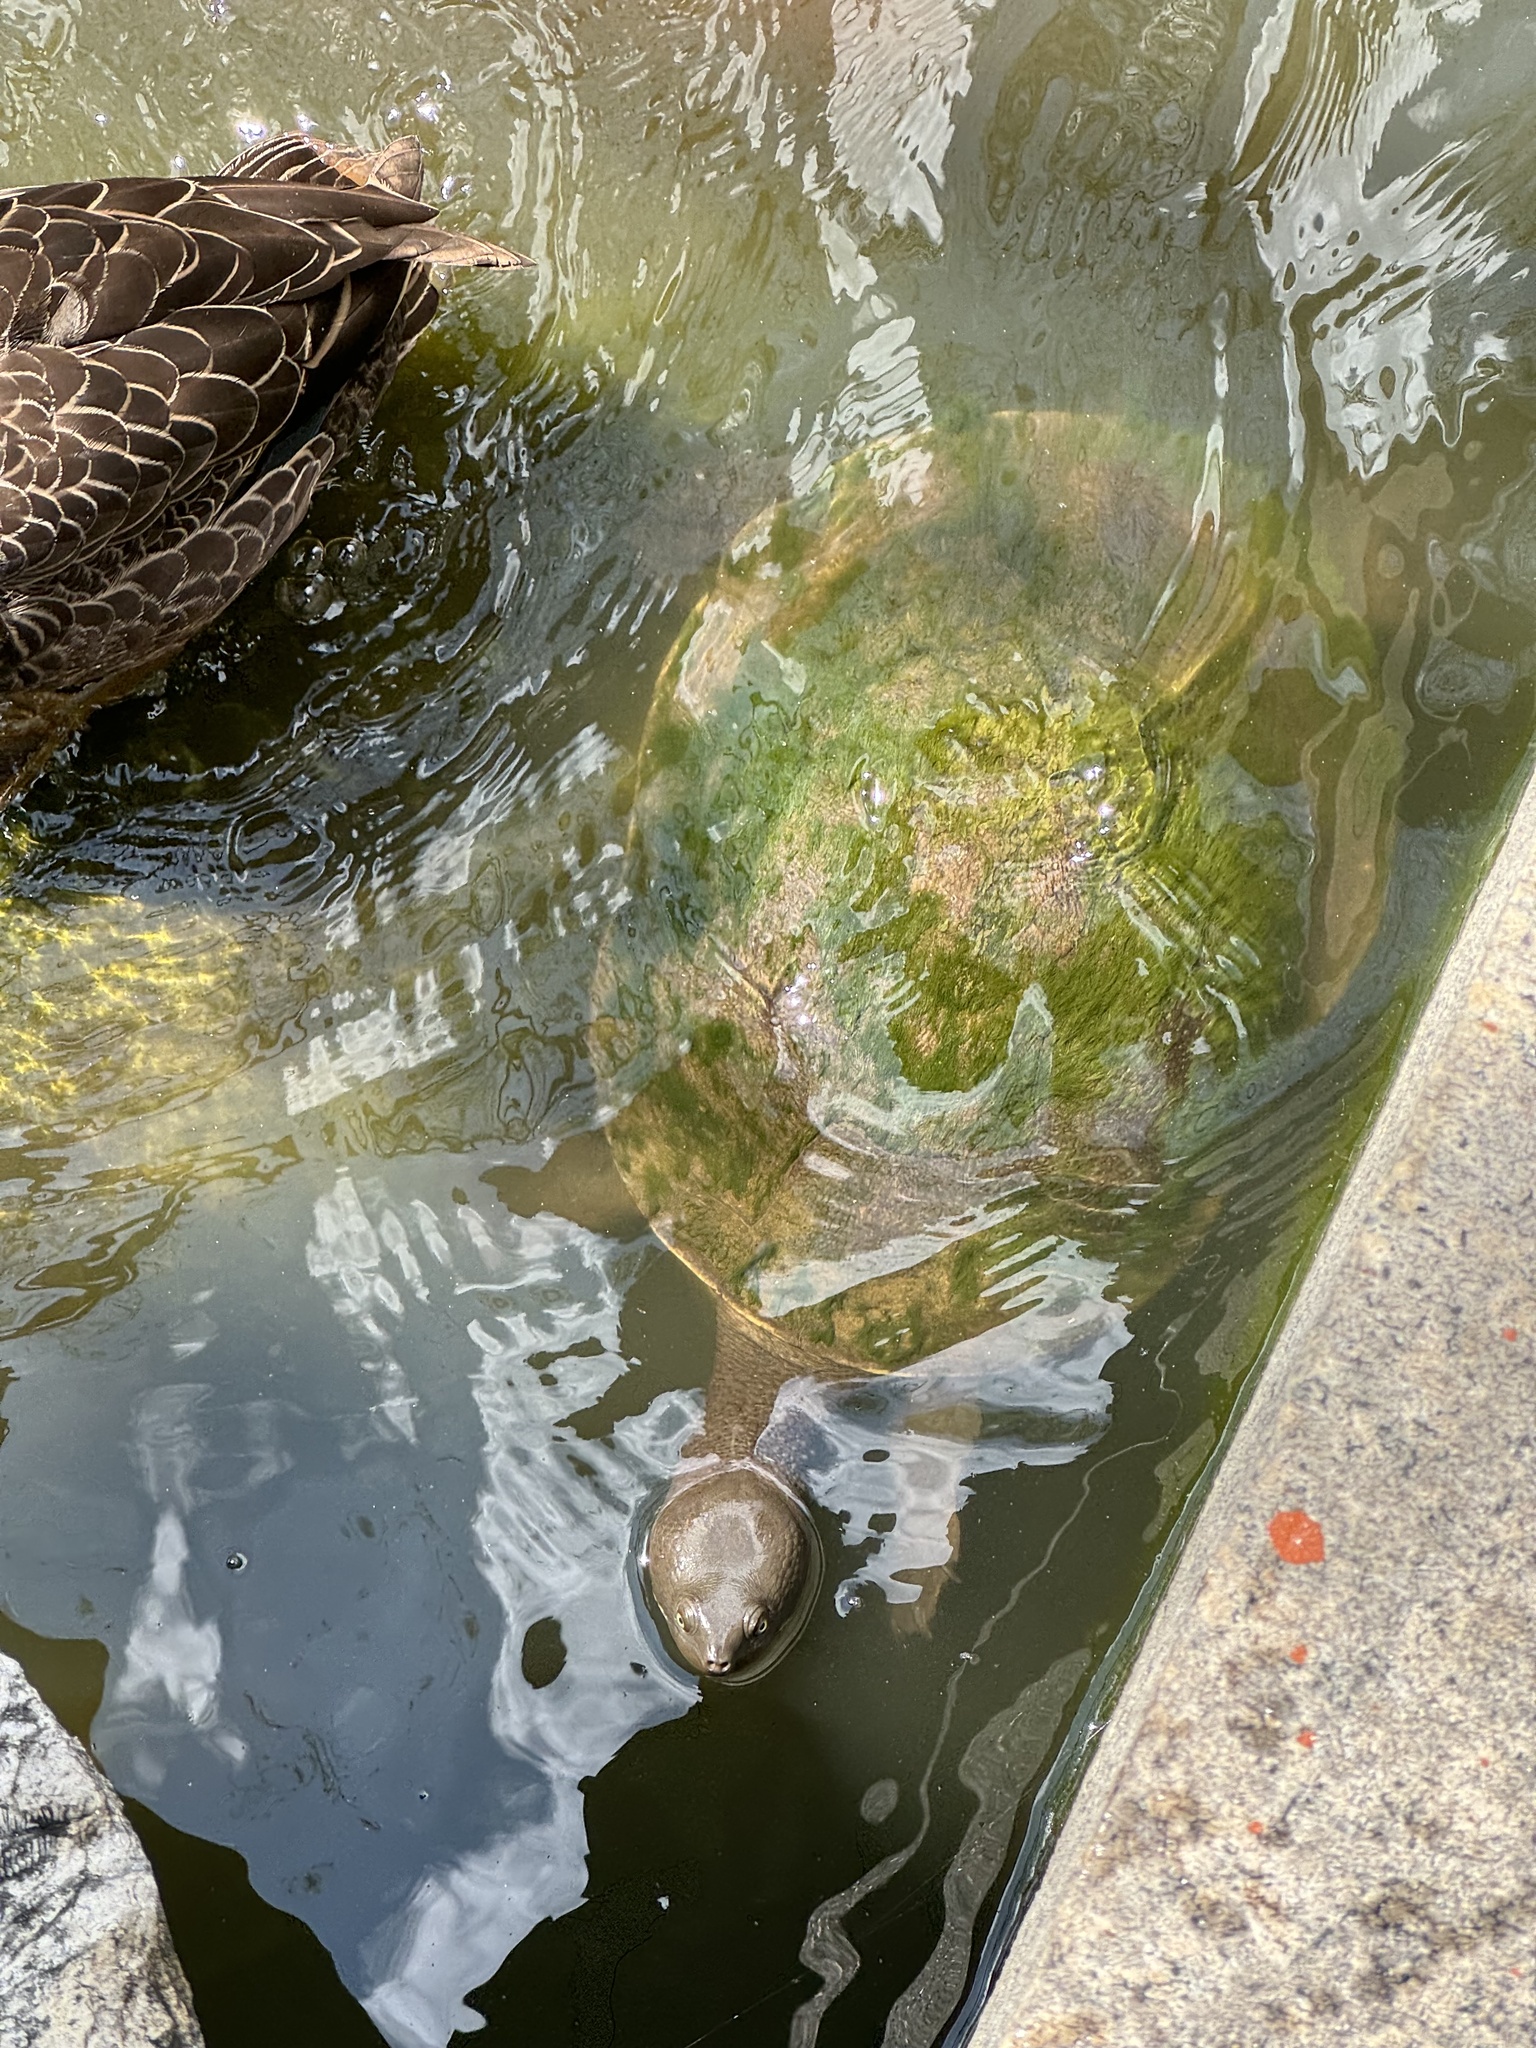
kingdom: Animalia
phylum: Chordata
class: Testudines
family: Chelidae
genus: Emydura
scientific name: Emydura macquarii
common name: Murray river turtle
